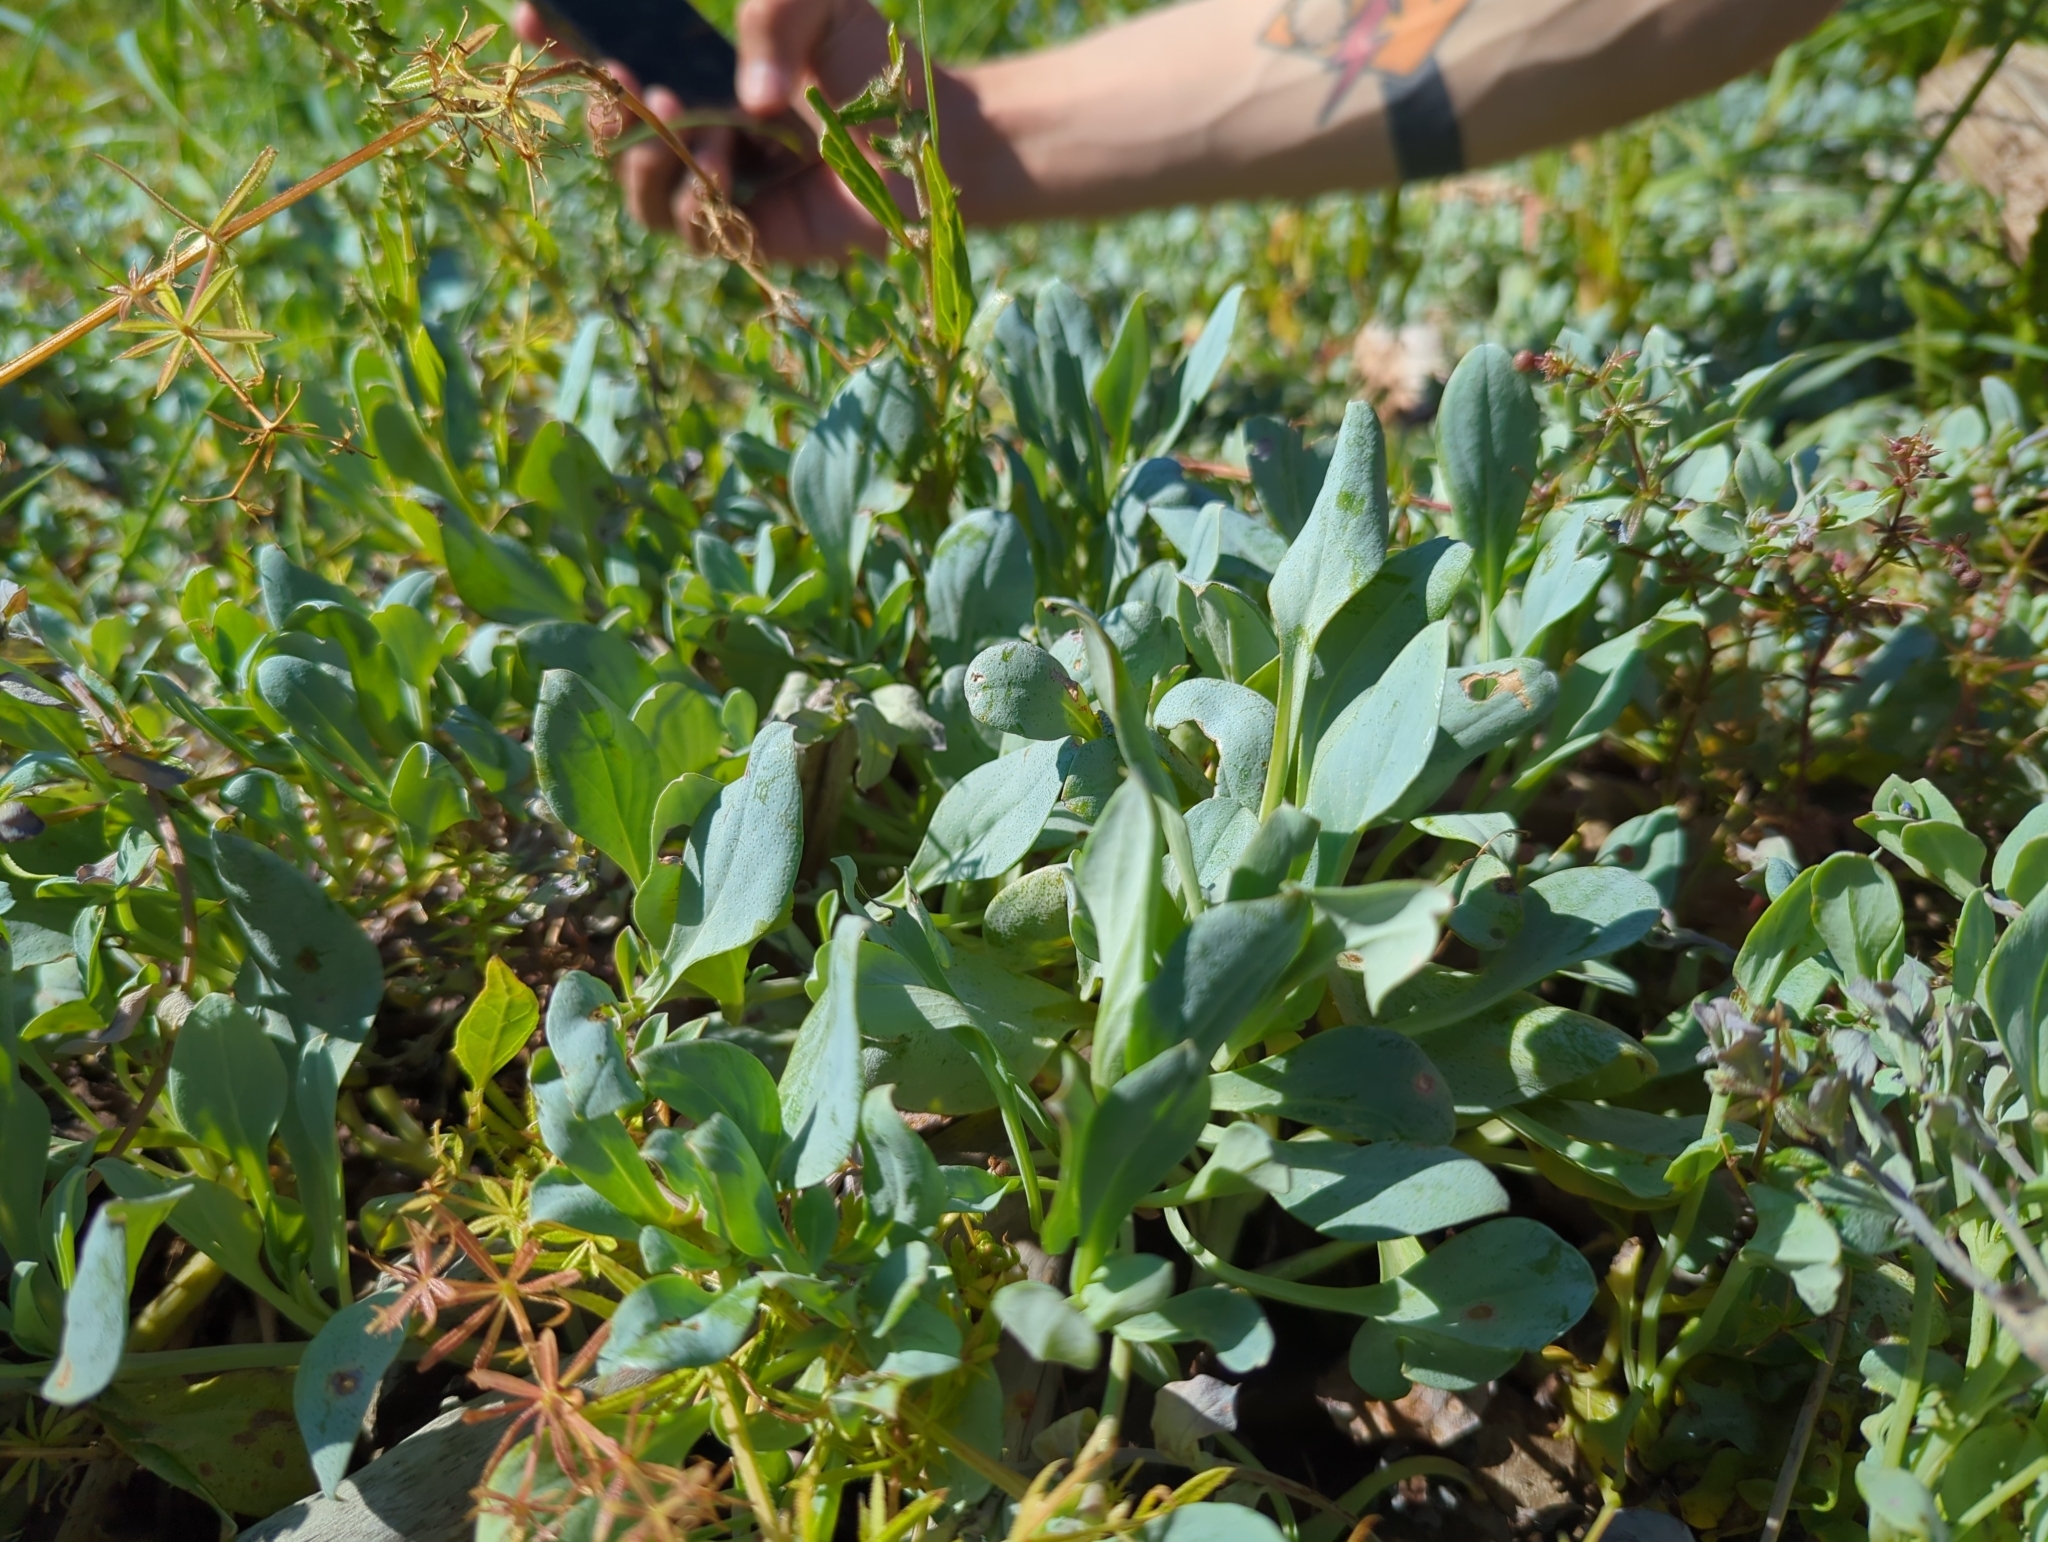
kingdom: Plantae
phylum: Tracheophyta
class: Magnoliopsida
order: Boraginales
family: Boraginaceae
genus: Mertensia
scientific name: Mertensia maritima
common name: Oysterplant
